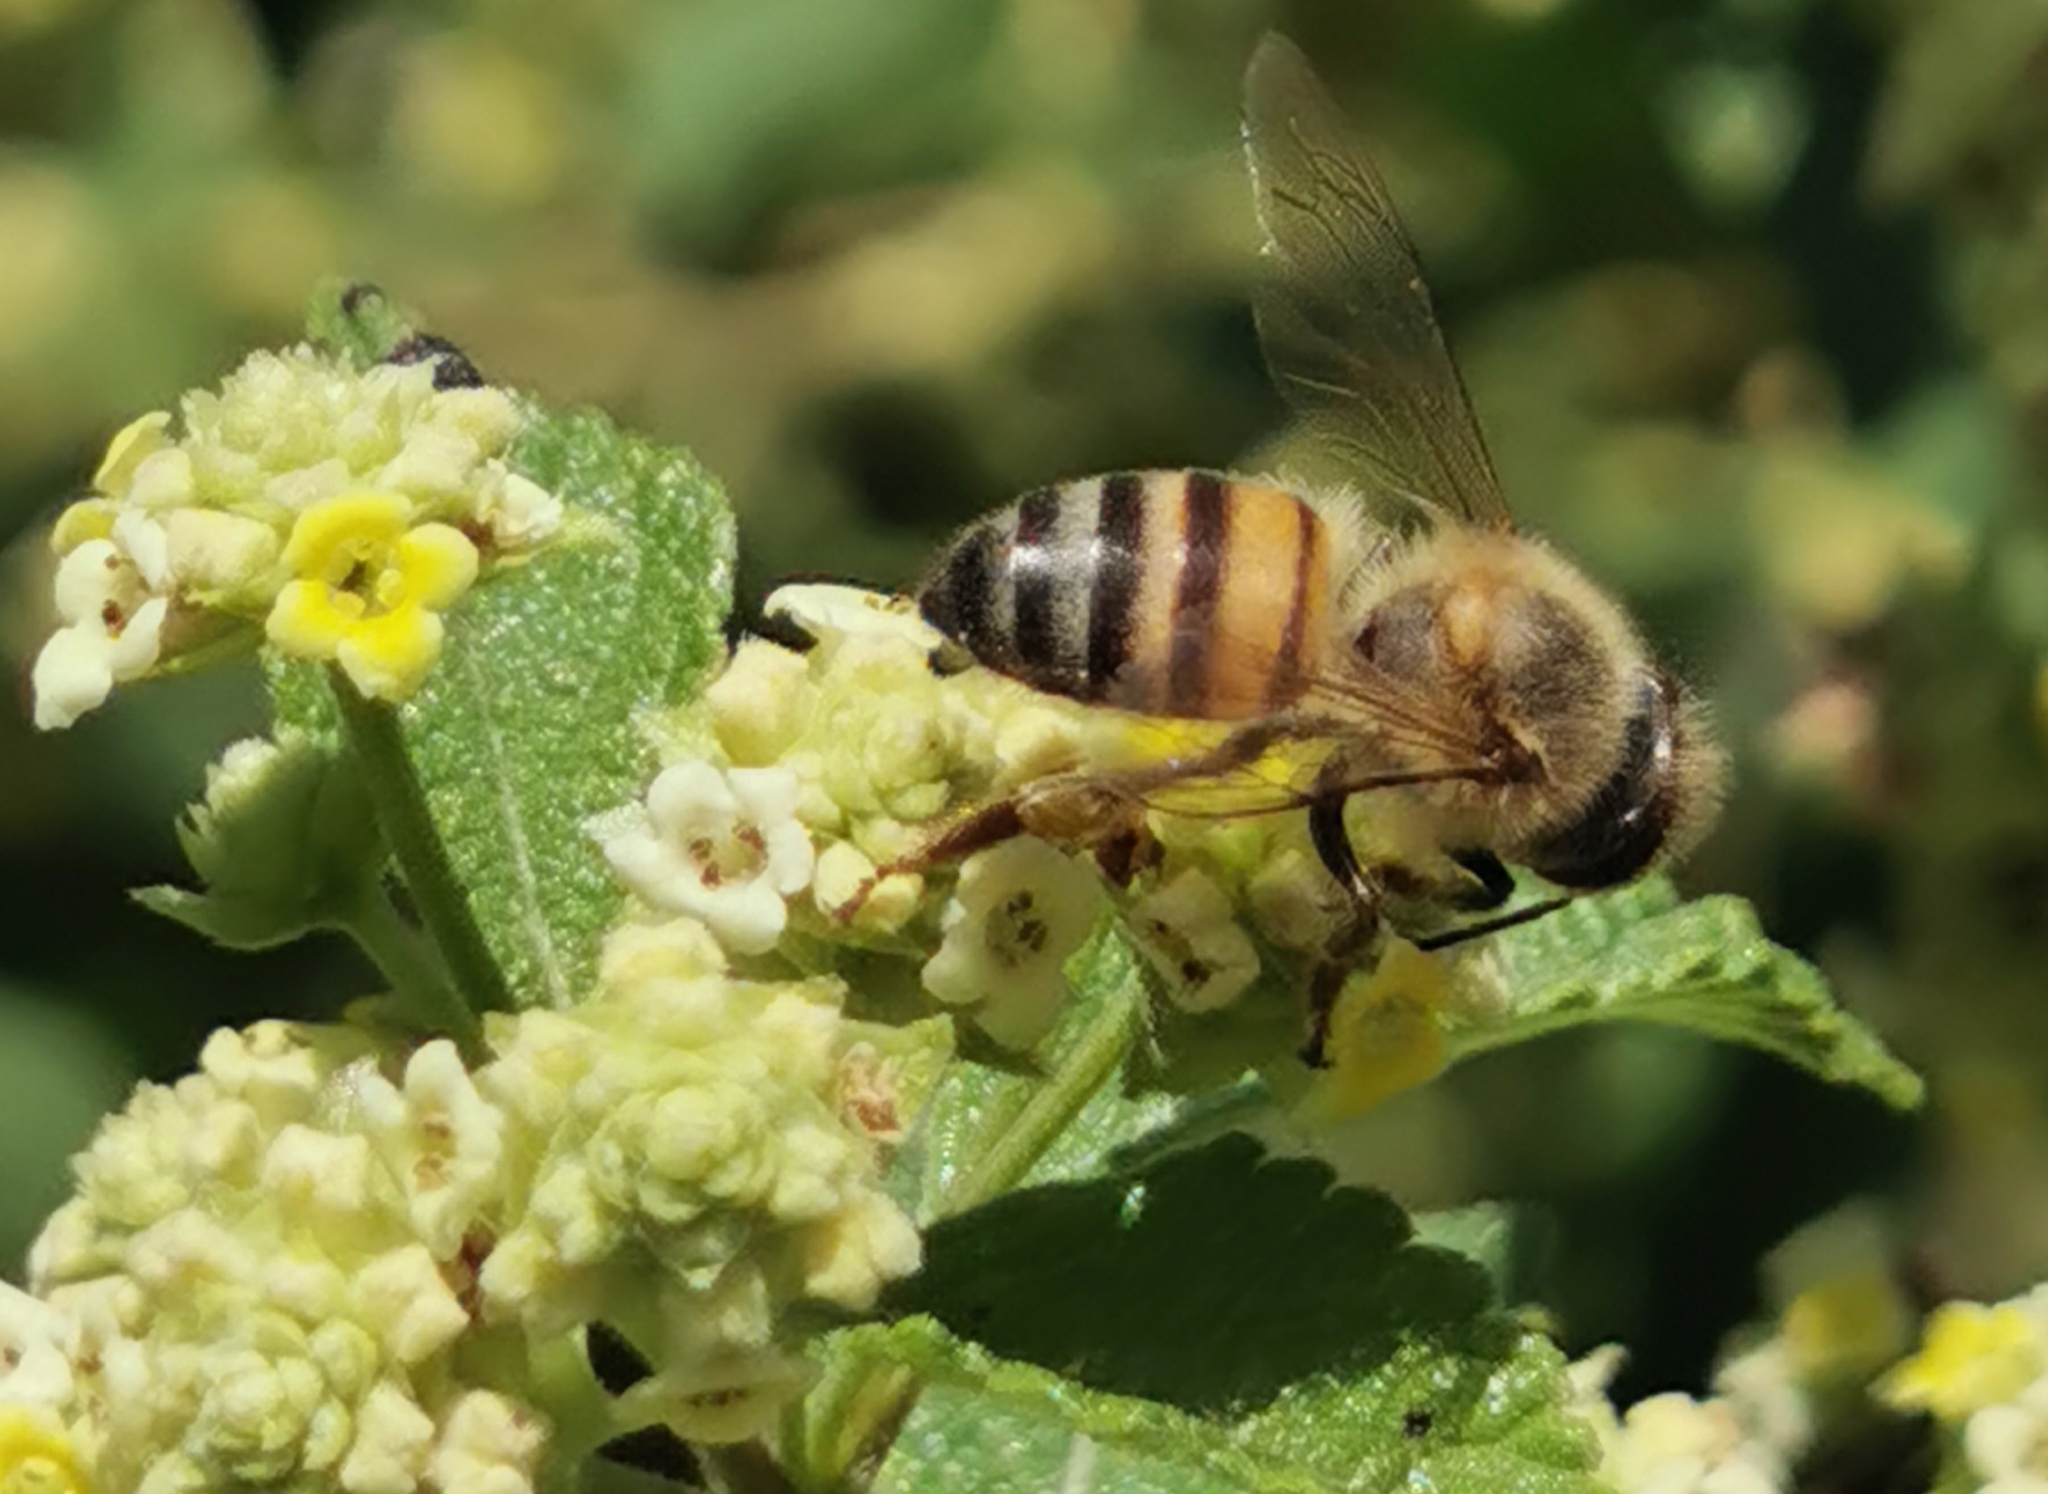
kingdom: Animalia
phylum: Arthropoda
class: Insecta
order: Hymenoptera
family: Apidae
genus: Apis
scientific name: Apis mellifera
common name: Honey bee
